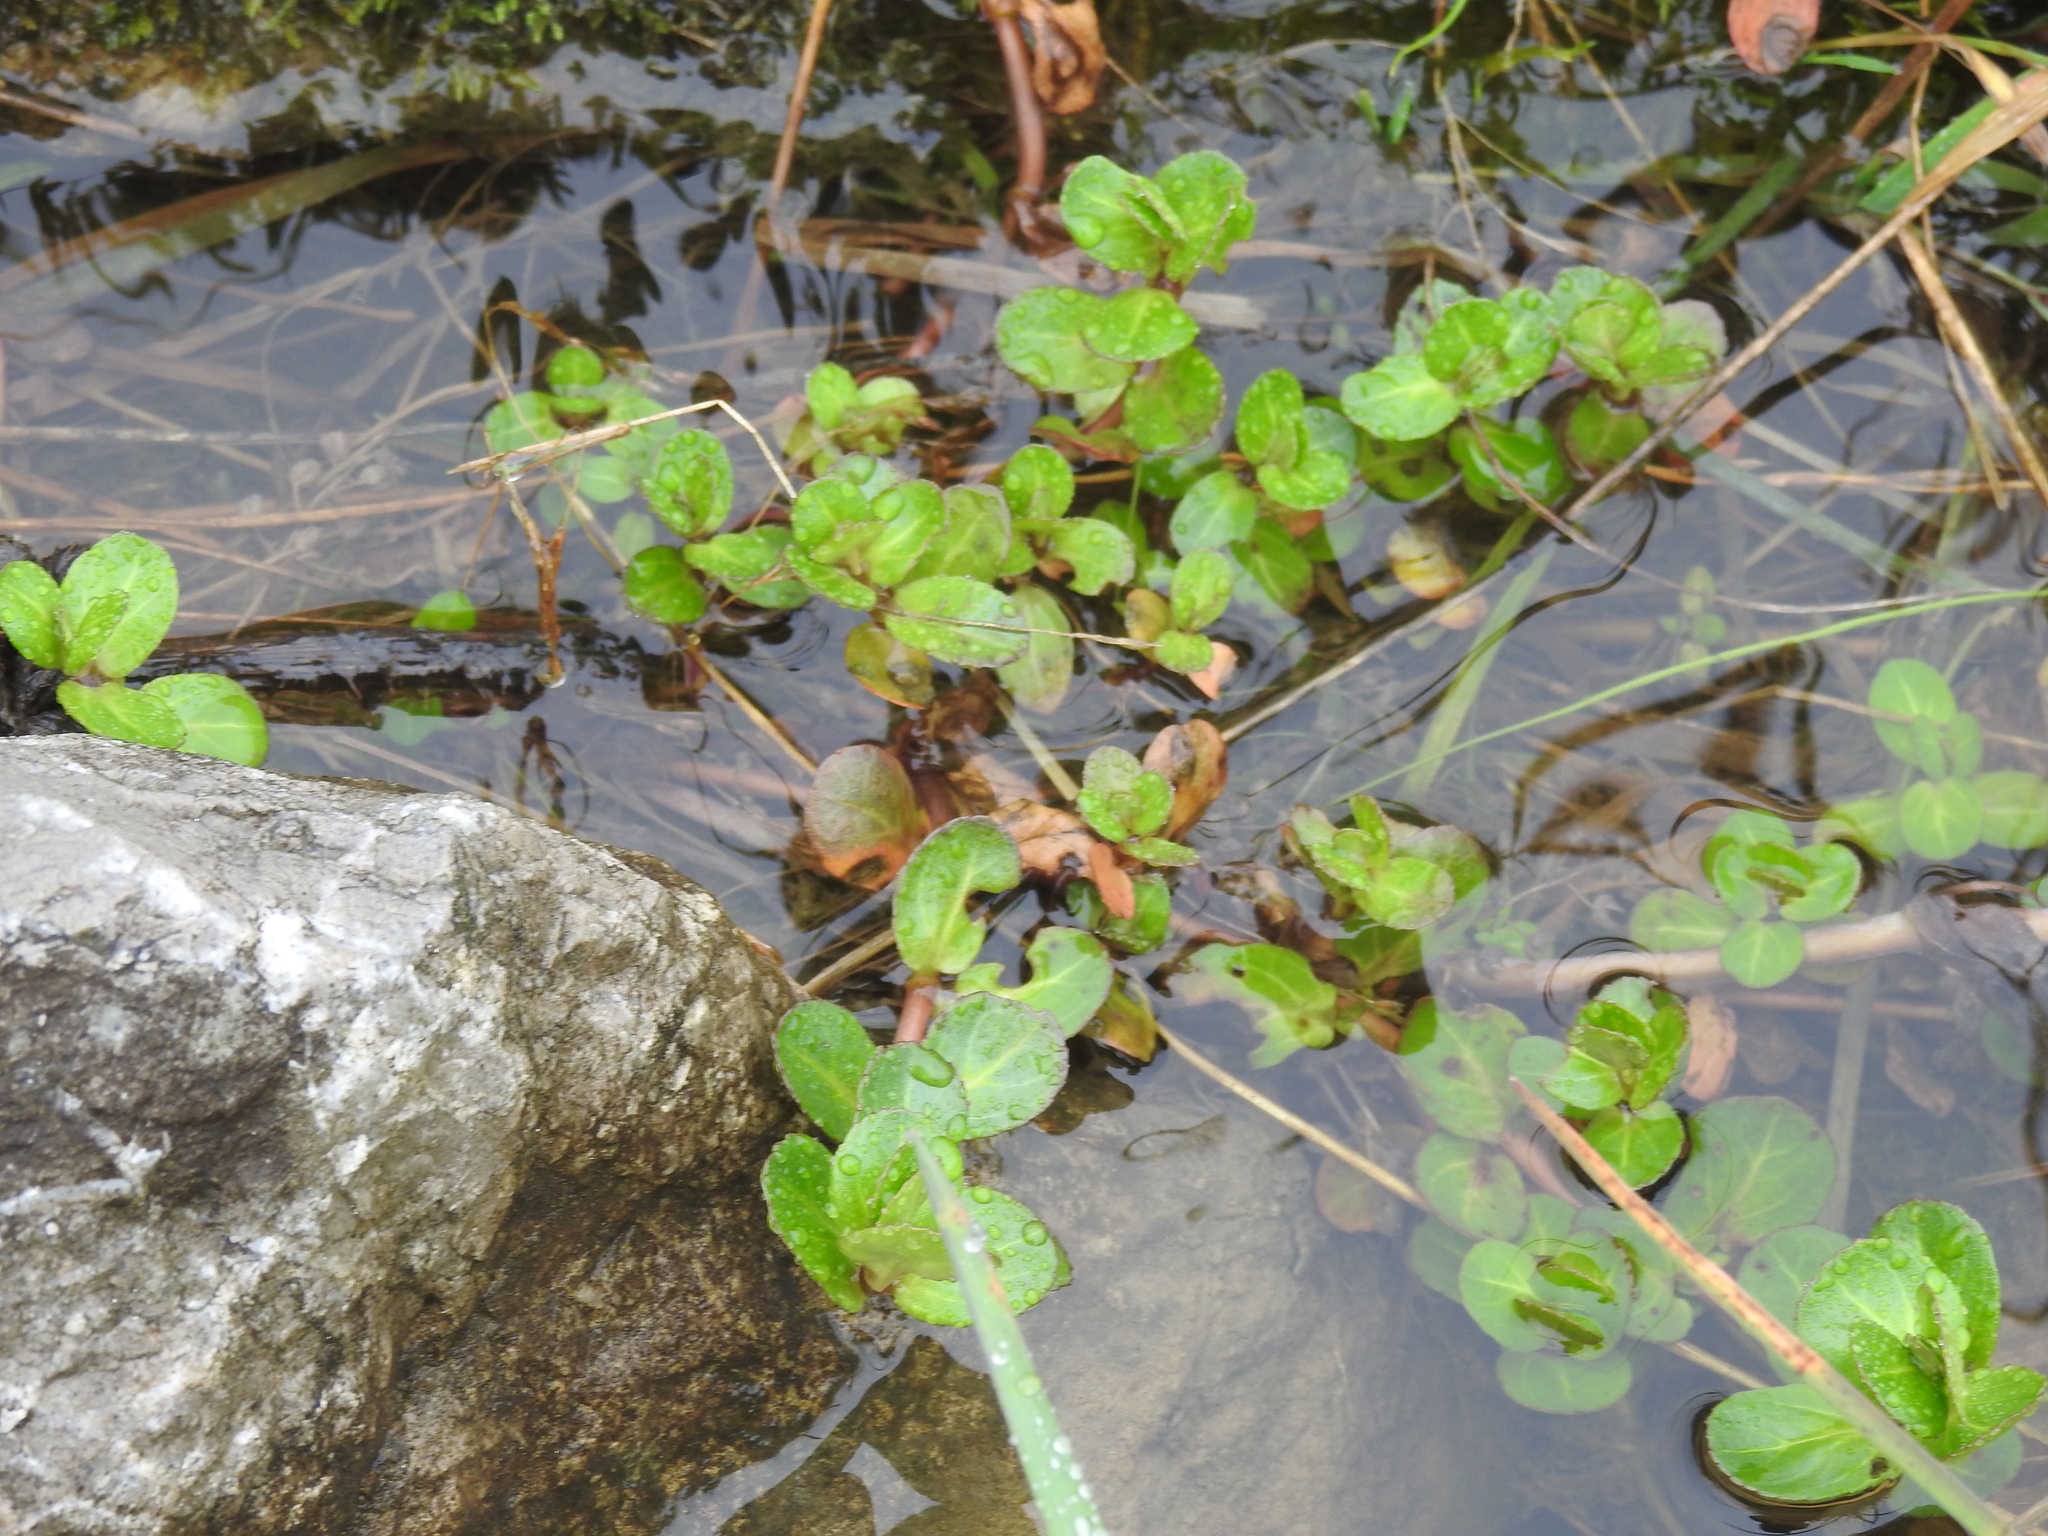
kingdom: Plantae
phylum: Tracheophyta
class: Magnoliopsida
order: Lamiales
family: Plantaginaceae
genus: Veronica
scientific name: Veronica beccabunga
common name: Brooklime
